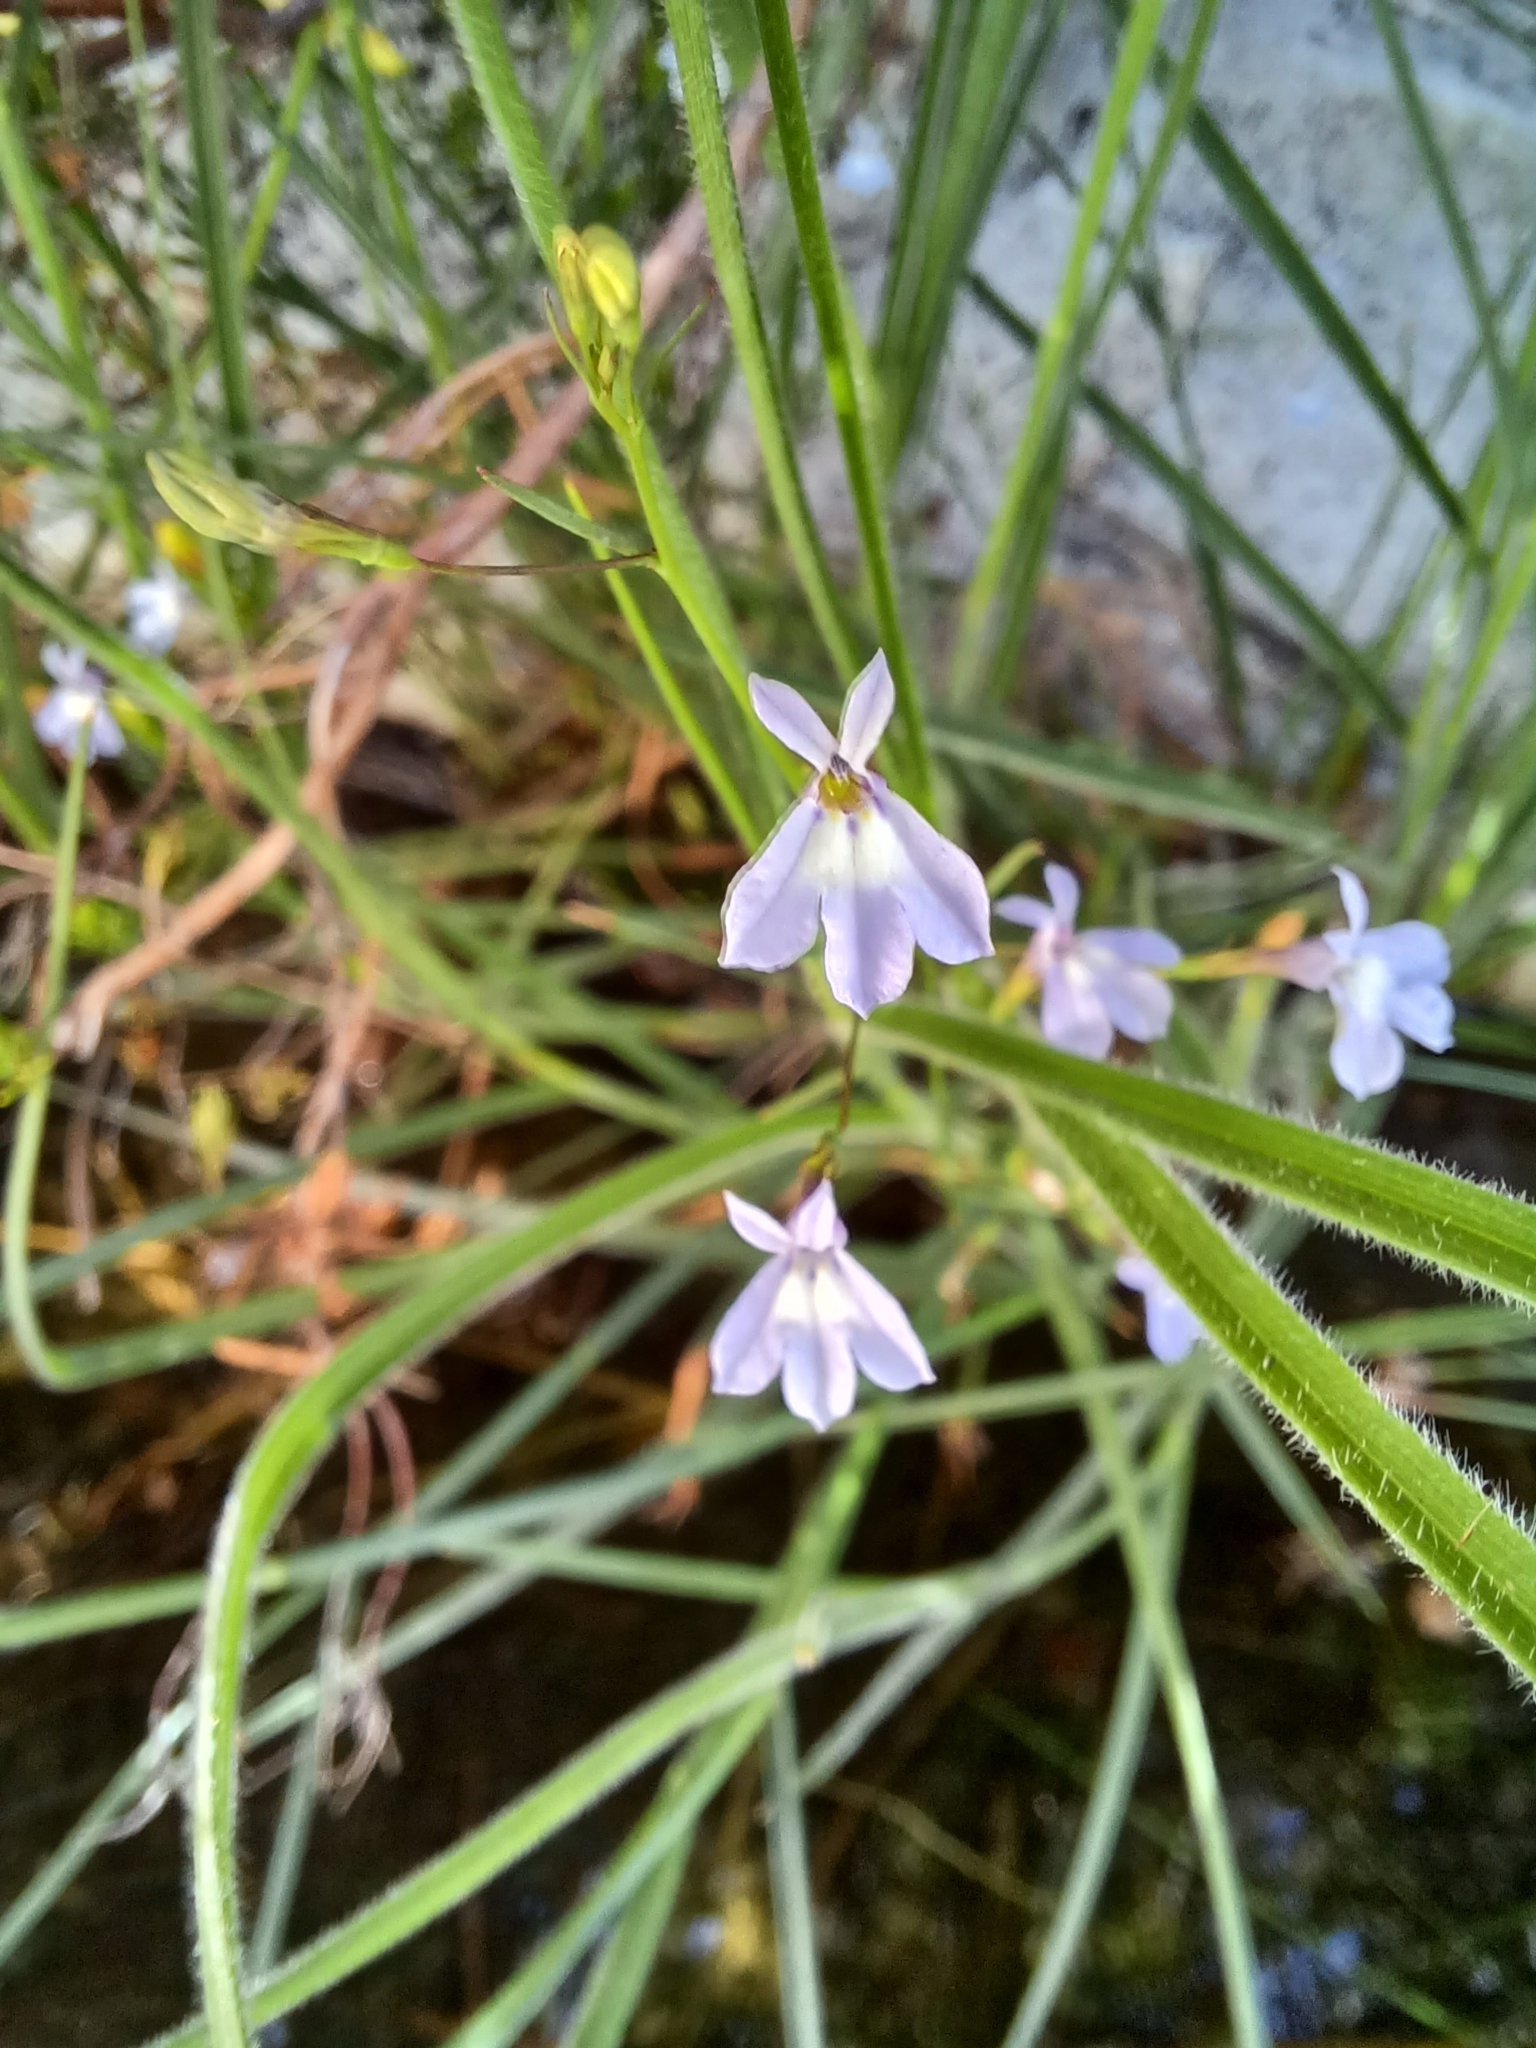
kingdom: Plantae
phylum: Tracheophyta
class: Magnoliopsida
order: Asterales
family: Campanulaceae
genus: Wimmerella
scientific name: Wimmerella arabidea
